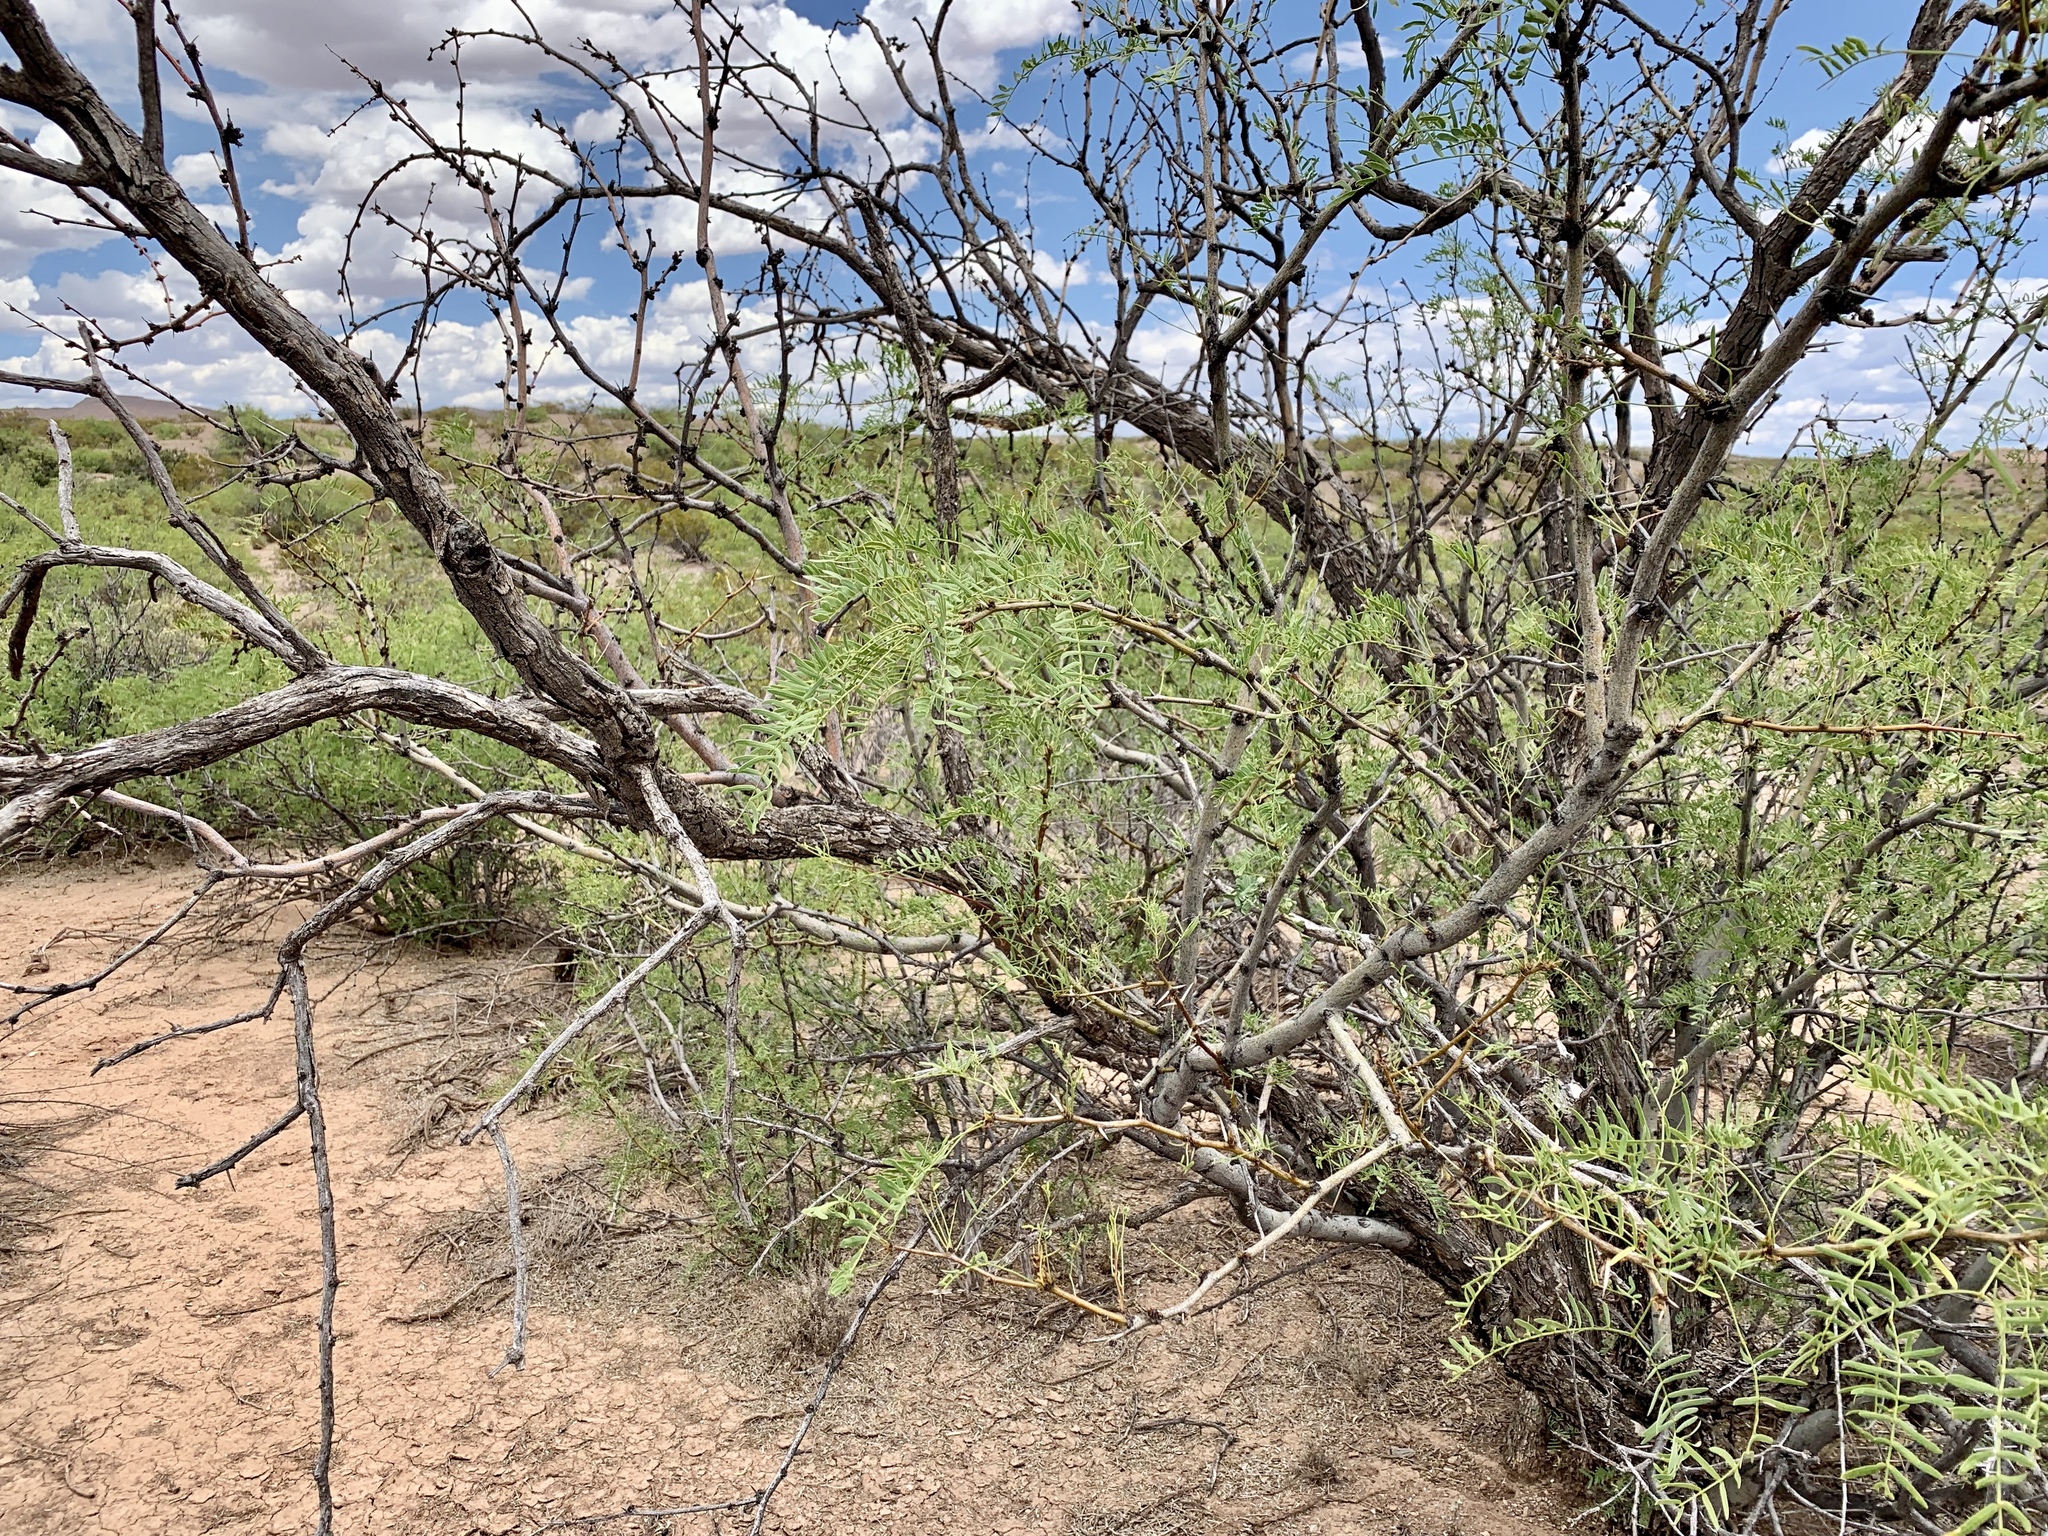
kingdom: Plantae
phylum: Tracheophyta
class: Magnoliopsida
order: Fabales
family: Fabaceae
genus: Prosopis
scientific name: Prosopis glandulosa
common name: Honey mesquite
